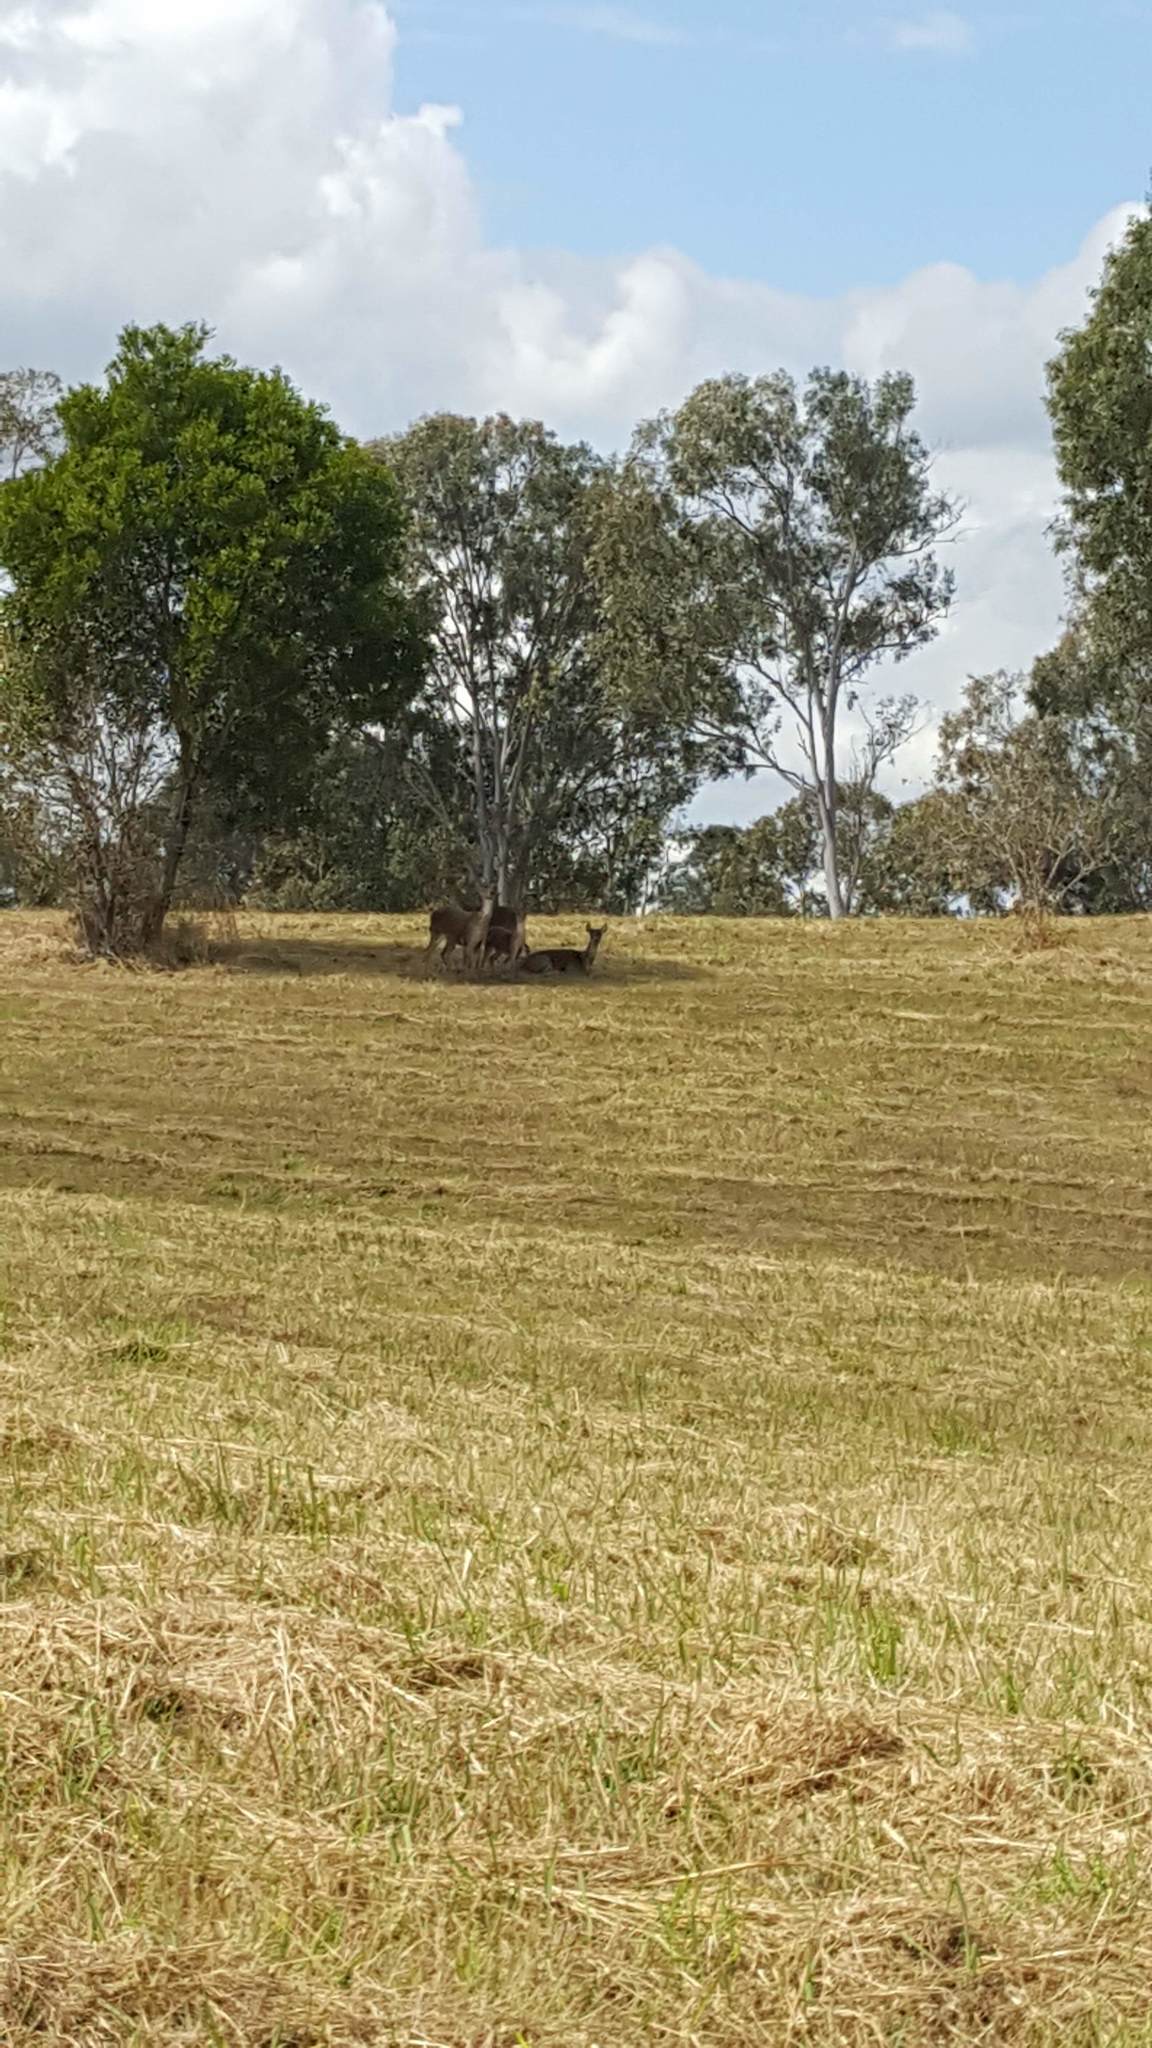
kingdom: Animalia
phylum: Chordata
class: Mammalia
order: Artiodactyla
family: Cervidae
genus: Rusa
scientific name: Rusa timorensis
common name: Javan rusa
